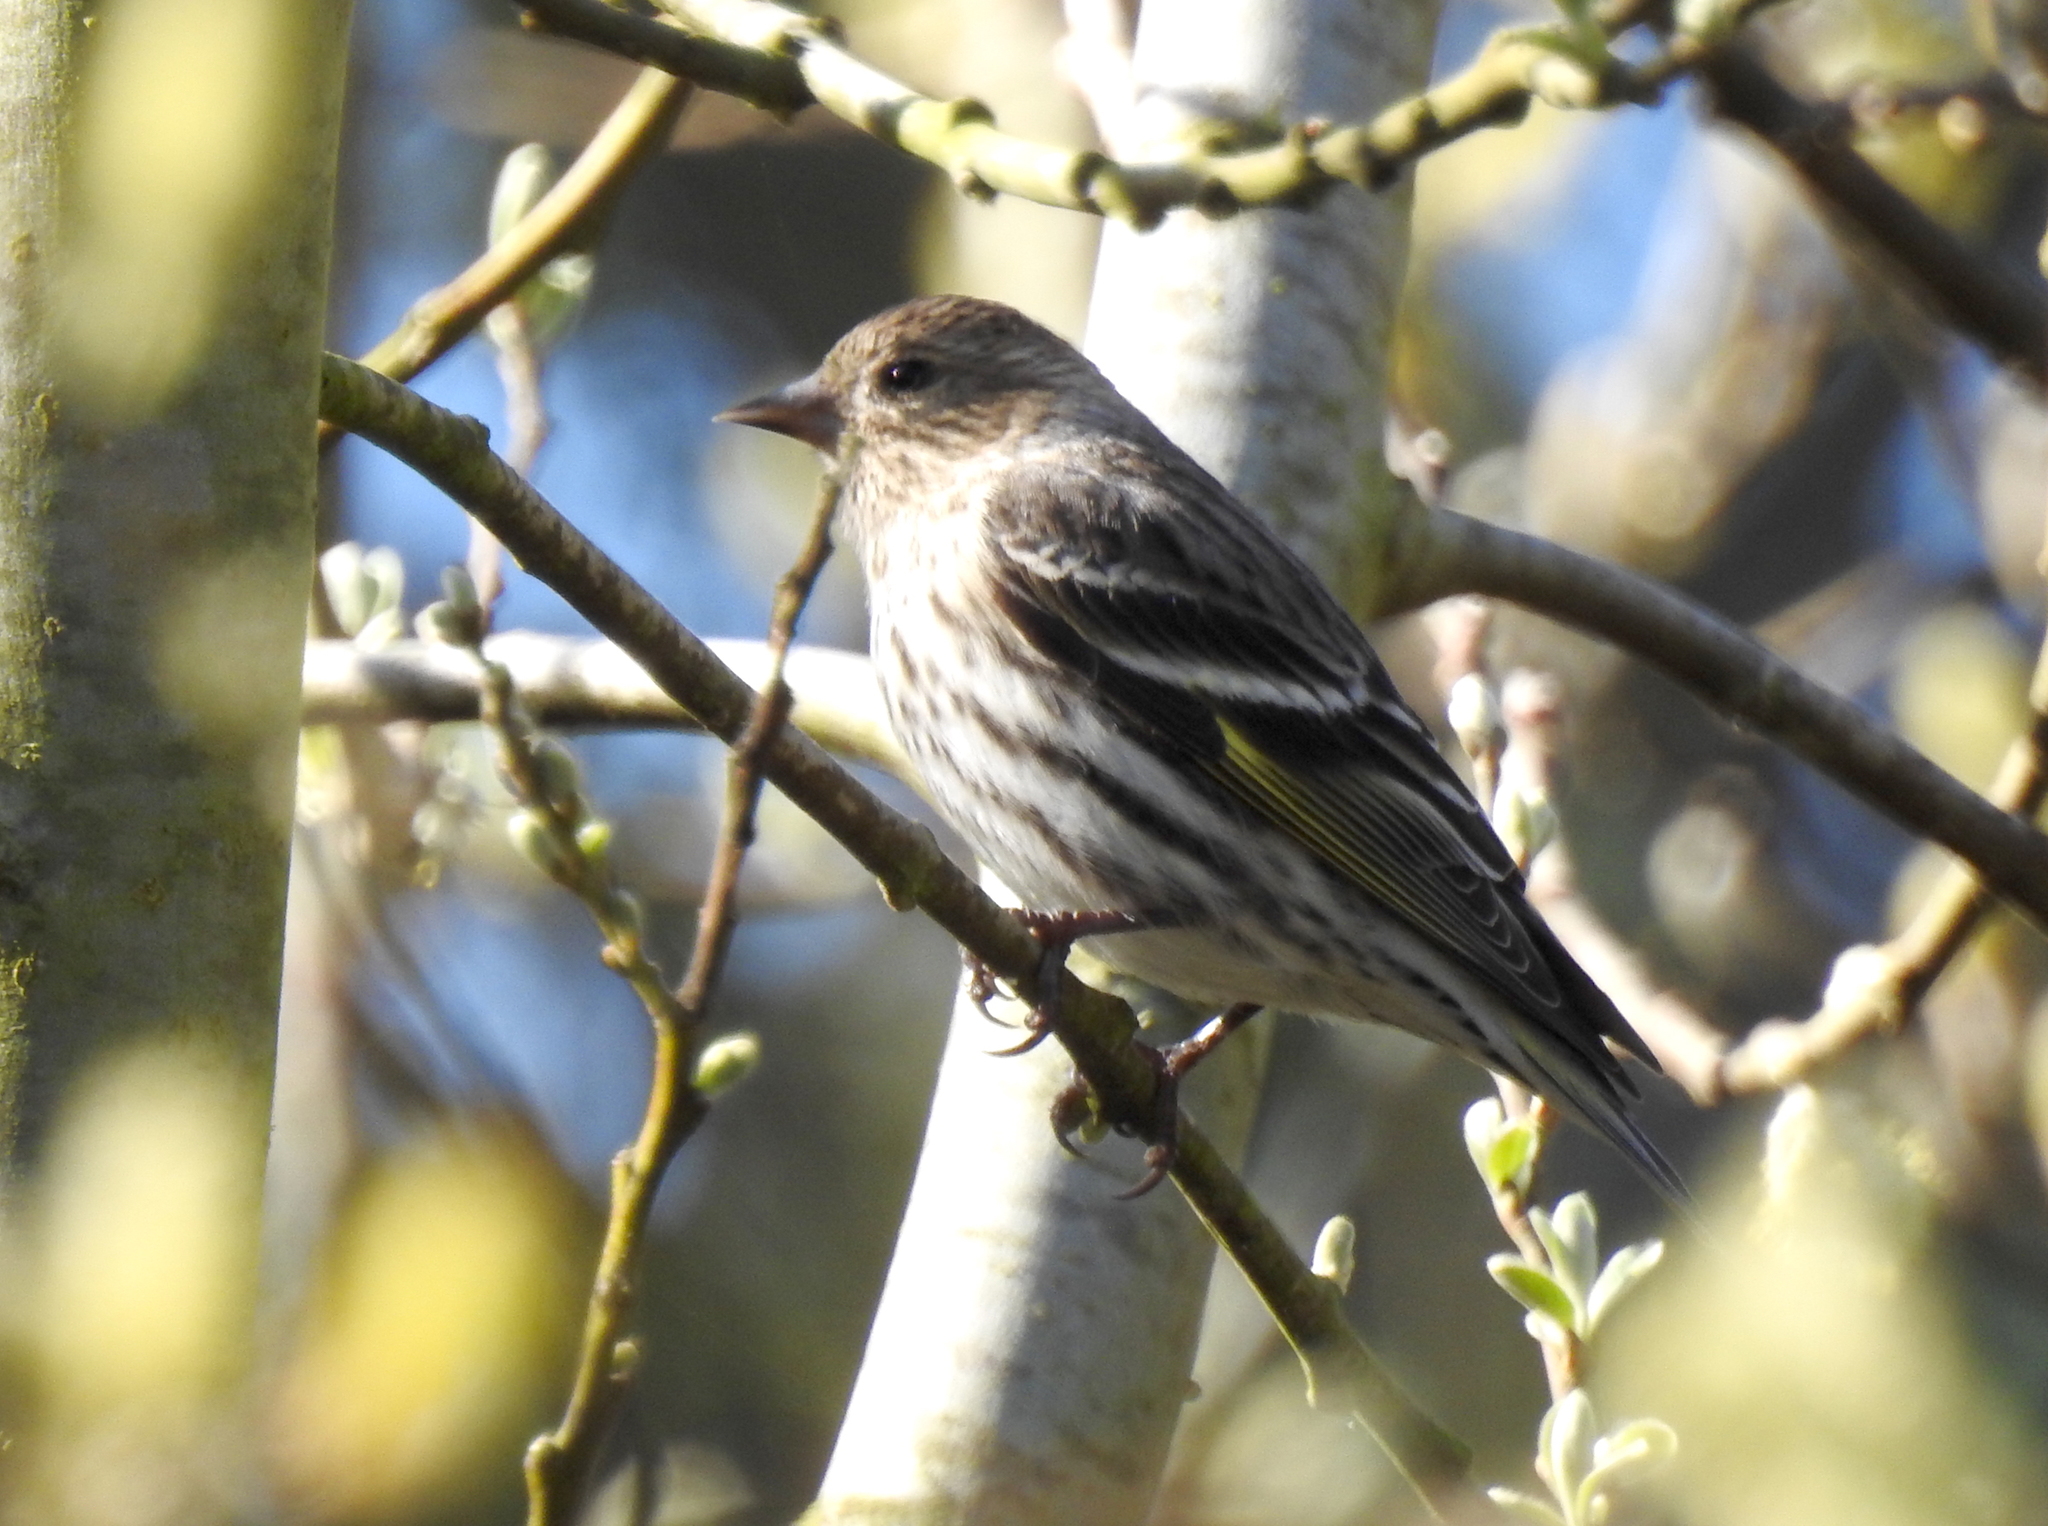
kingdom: Animalia
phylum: Chordata
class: Aves
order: Passeriformes
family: Fringillidae
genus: Spinus
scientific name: Spinus pinus
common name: Pine siskin
